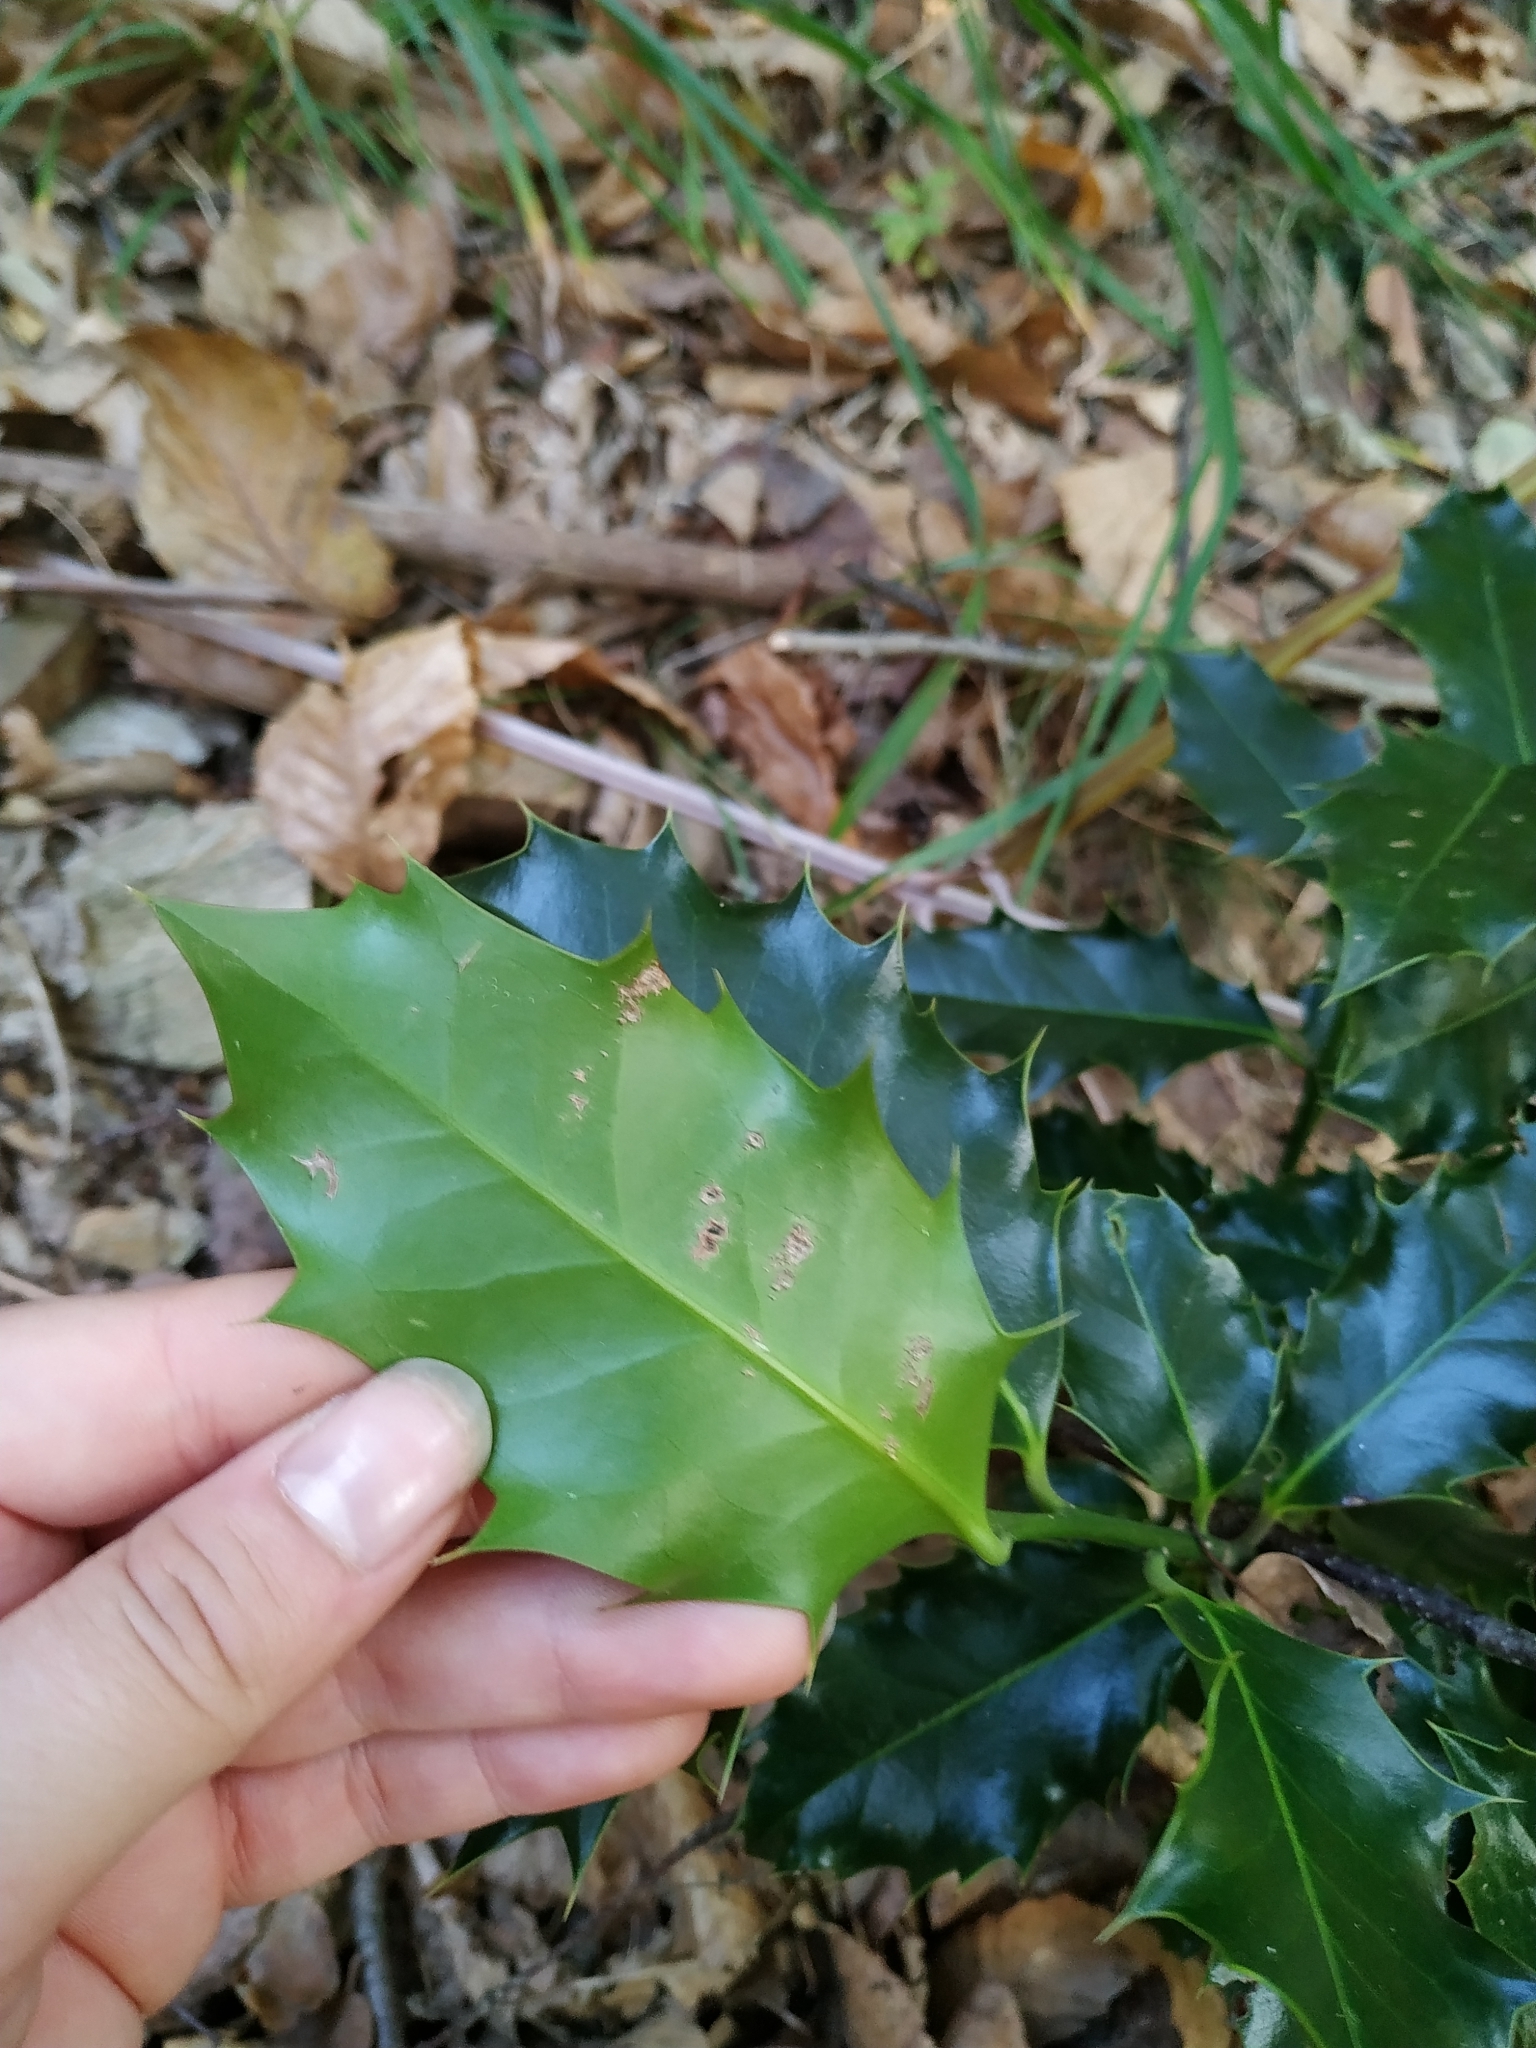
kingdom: Plantae
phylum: Tracheophyta
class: Magnoliopsida
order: Aquifoliales
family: Aquifoliaceae
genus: Ilex
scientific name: Ilex aquifolium
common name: English holly
